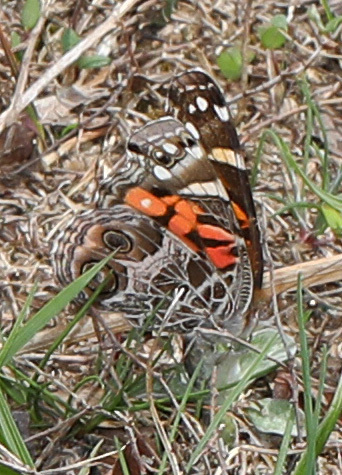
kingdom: Animalia
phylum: Arthropoda
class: Insecta
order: Lepidoptera
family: Nymphalidae
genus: Vanessa
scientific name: Vanessa virginiensis
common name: American lady
